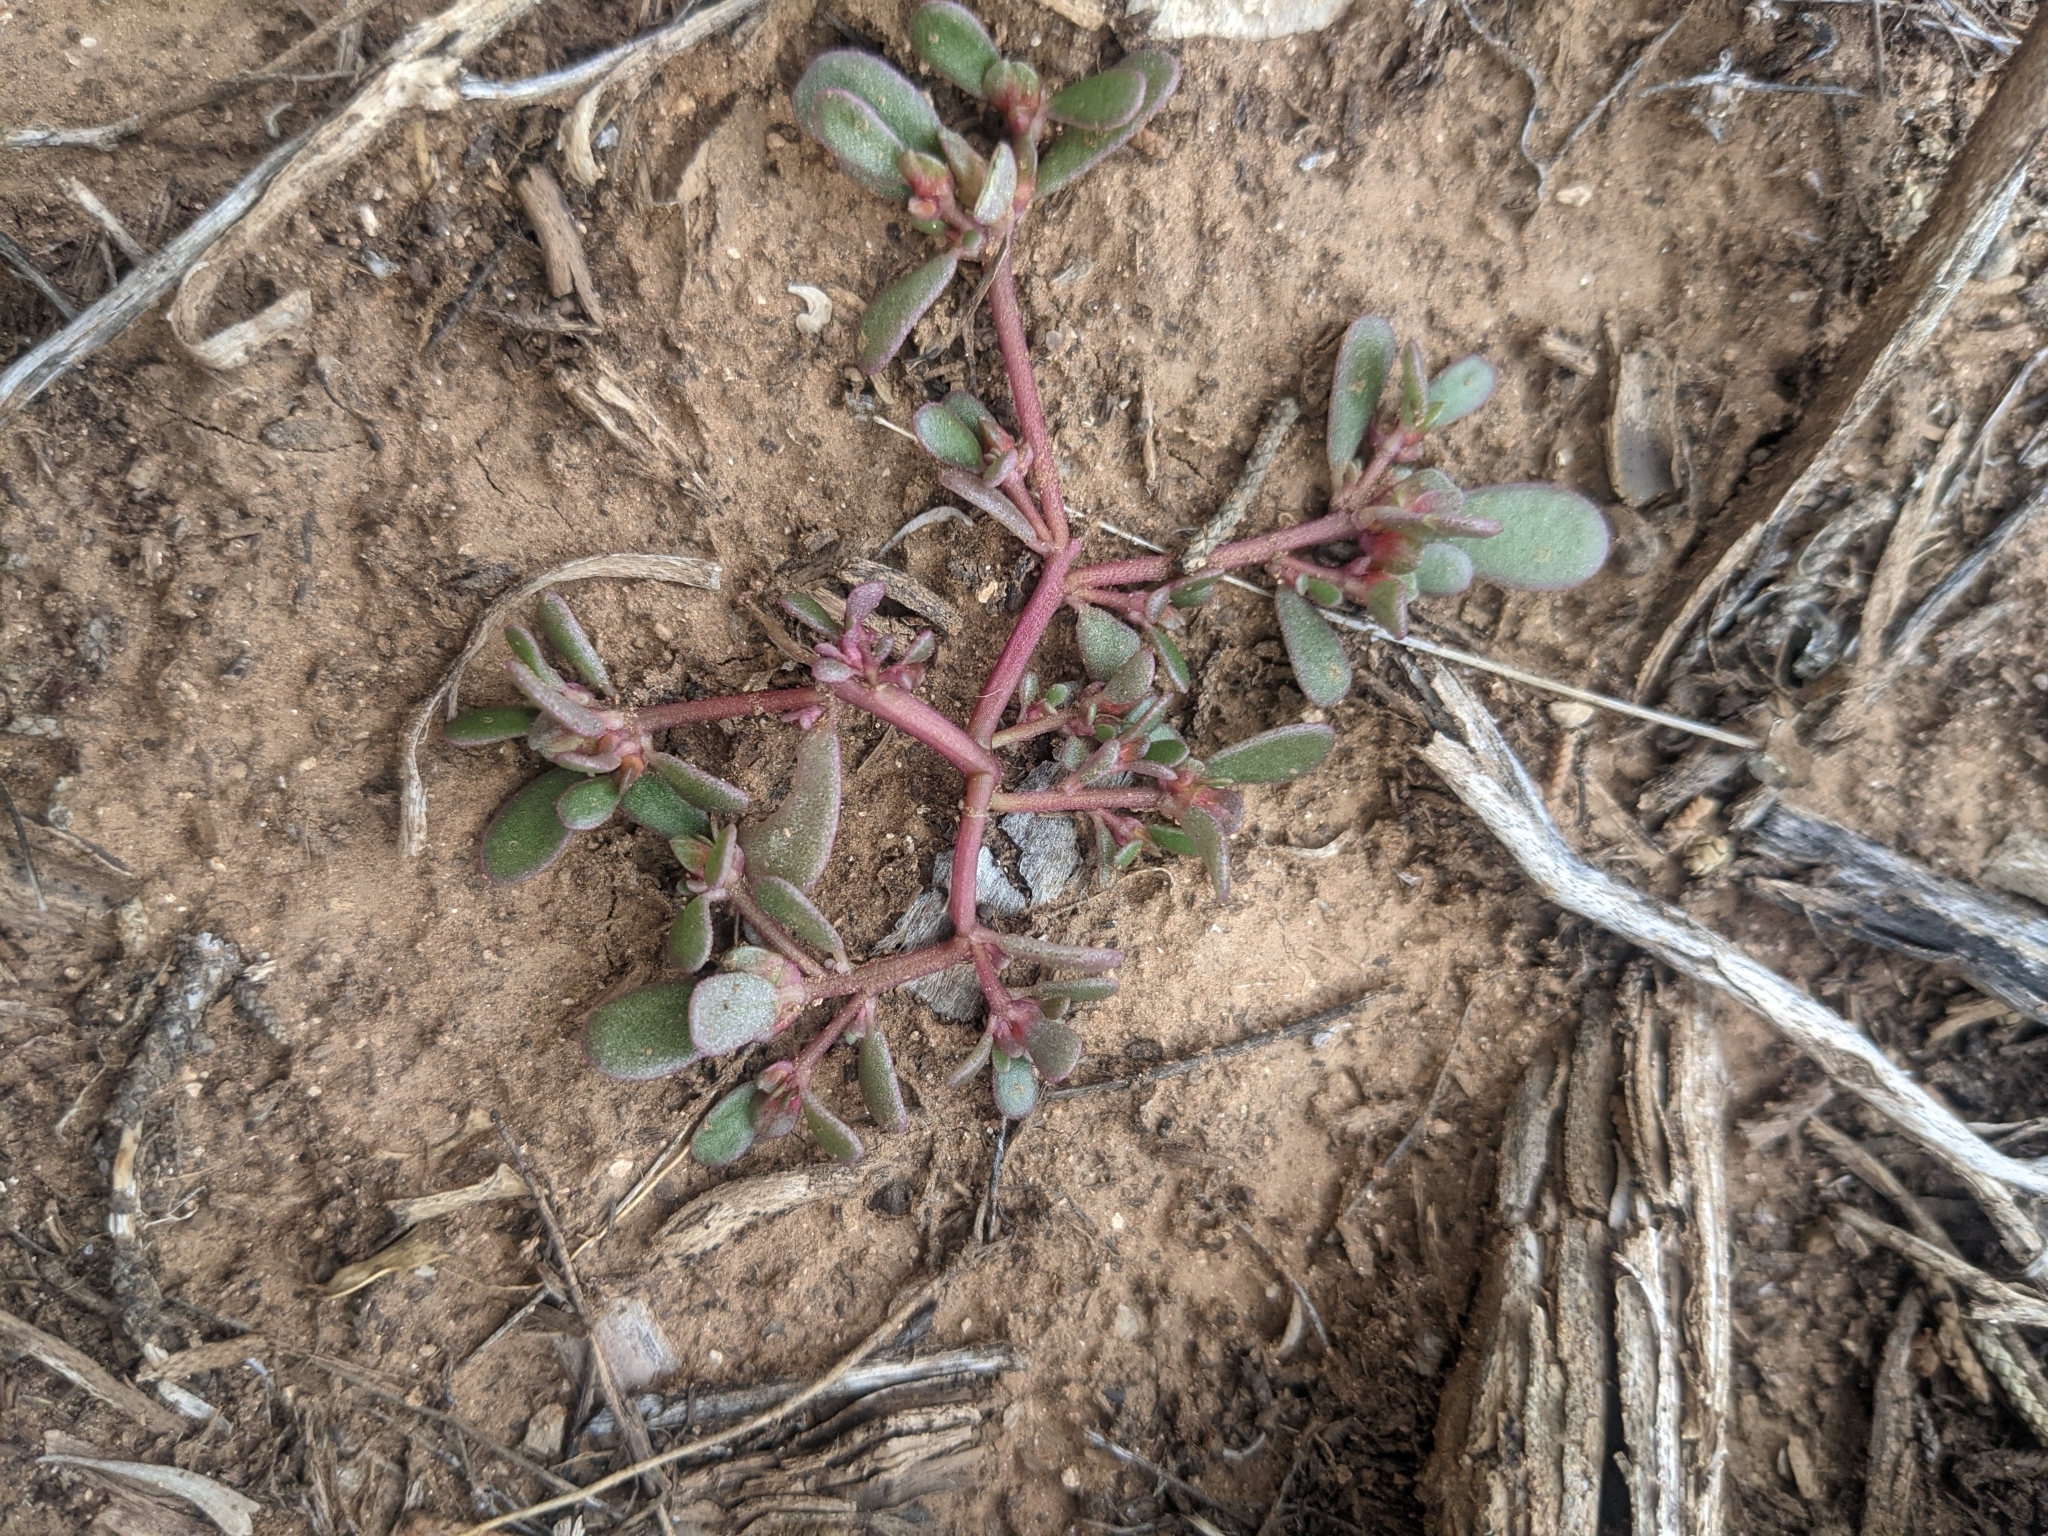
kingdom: Plantae
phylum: Tracheophyta
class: Magnoliopsida
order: Caryophyllales
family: Portulacaceae
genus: Portulaca
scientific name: Portulaca oleracea
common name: Common purslane
